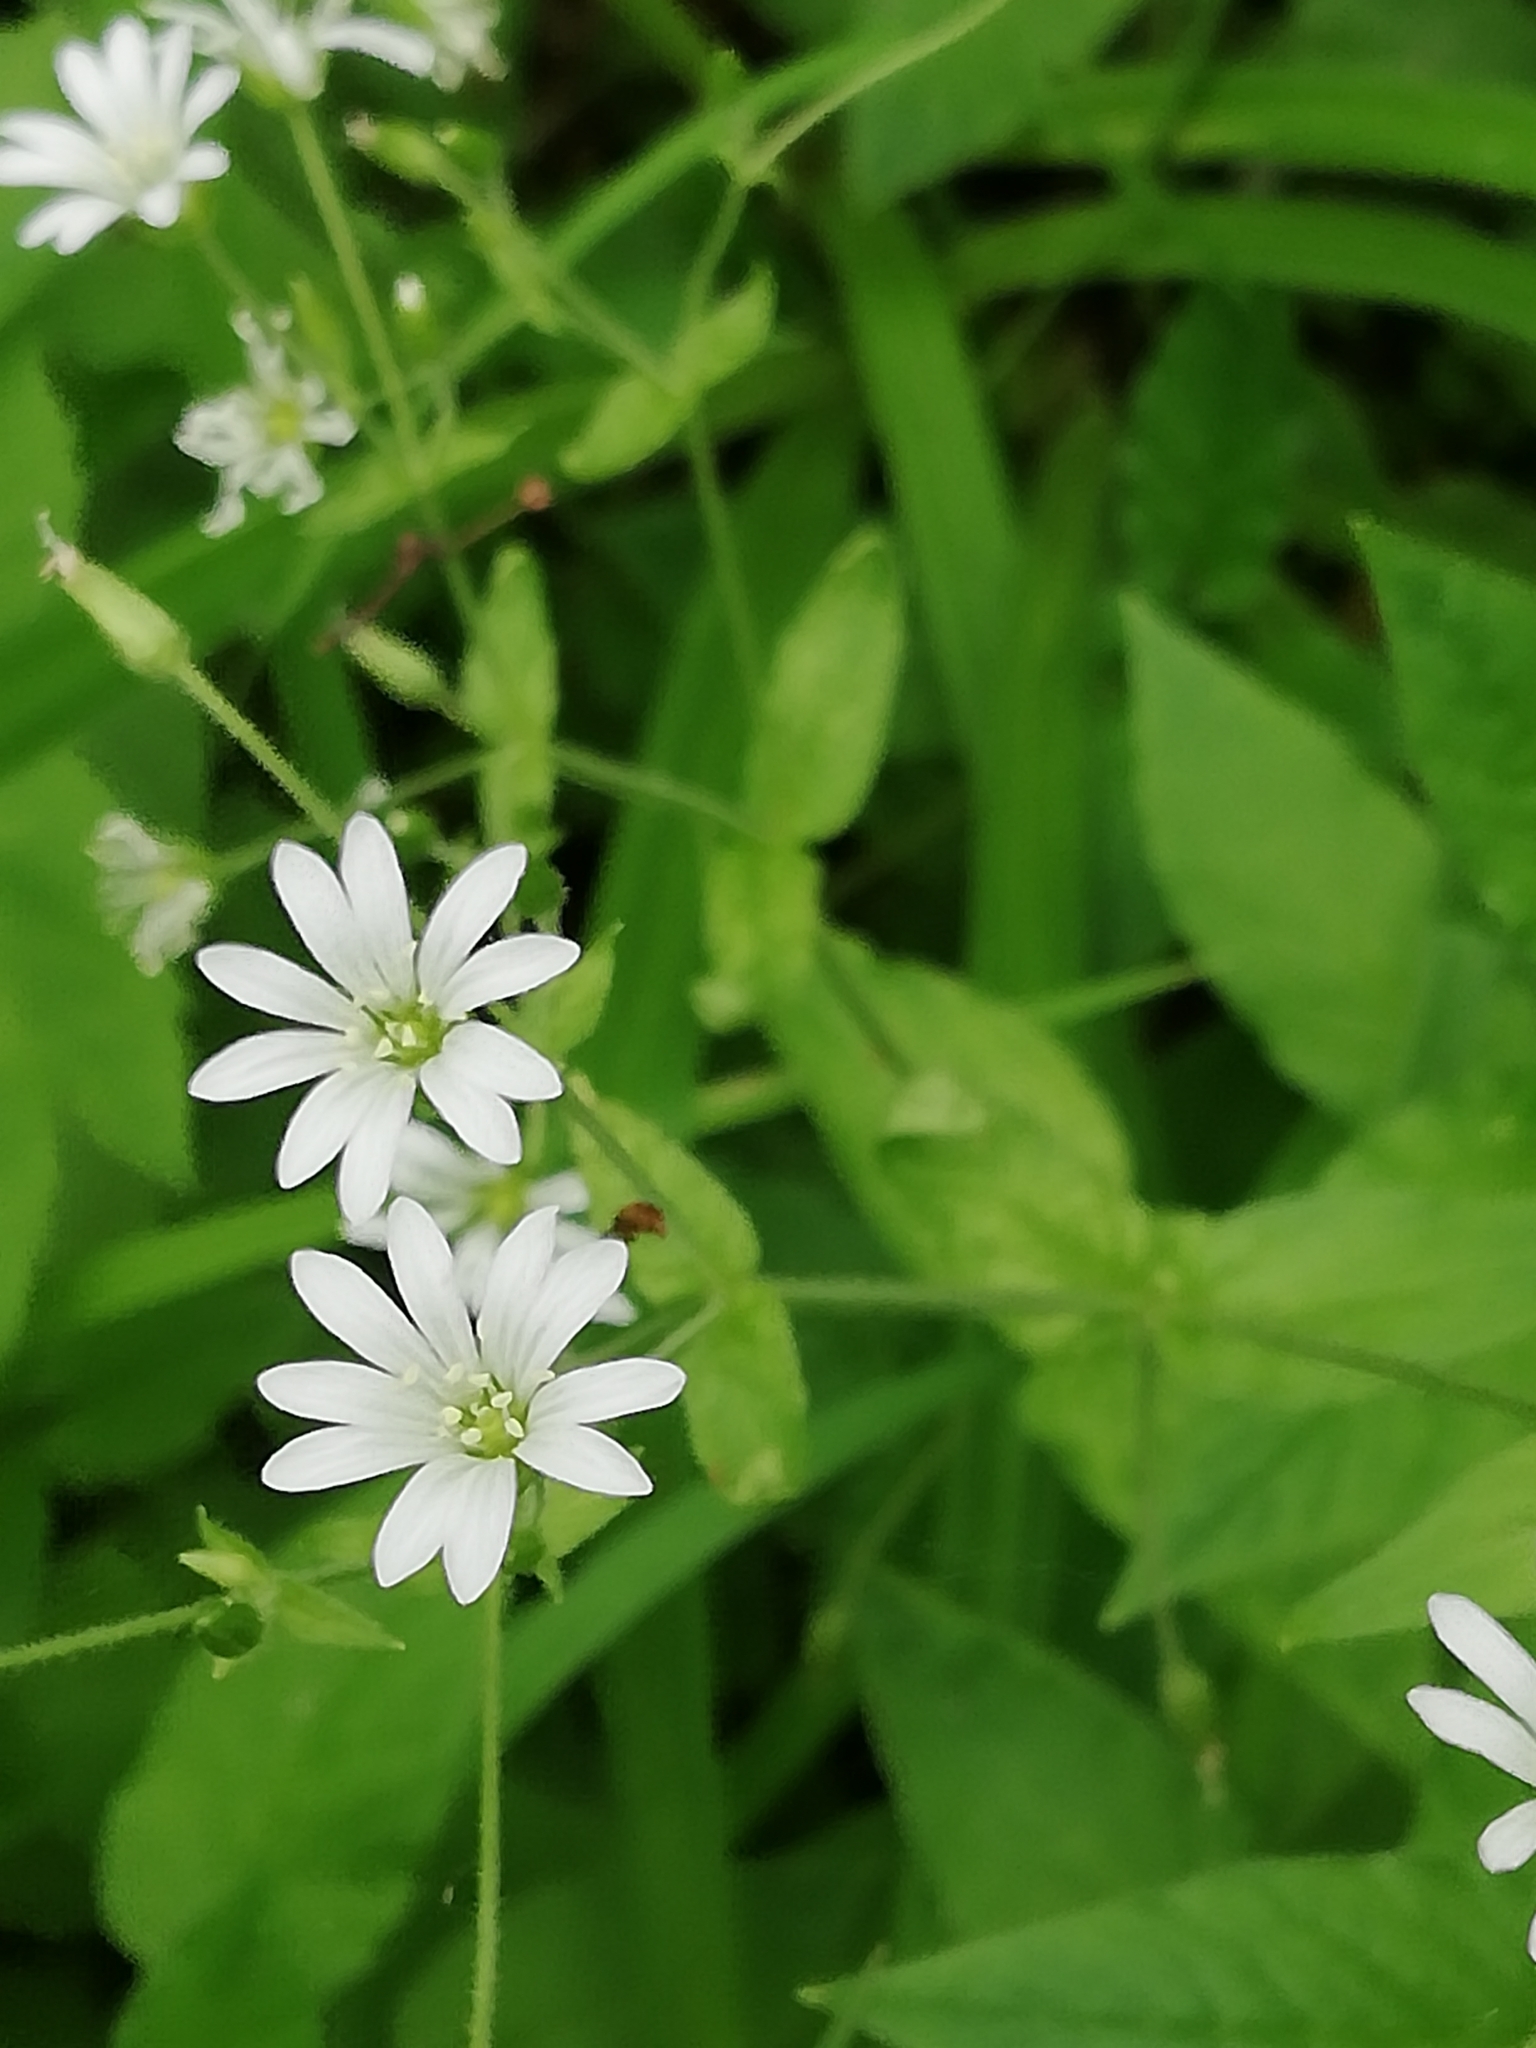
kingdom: Plantae
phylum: Tracheophyta
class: Magnoliopsida
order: Caryophyllales
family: Caryophyllaceae
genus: Stellaria
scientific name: Stellaria nemorum
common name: Wood stitchwort
